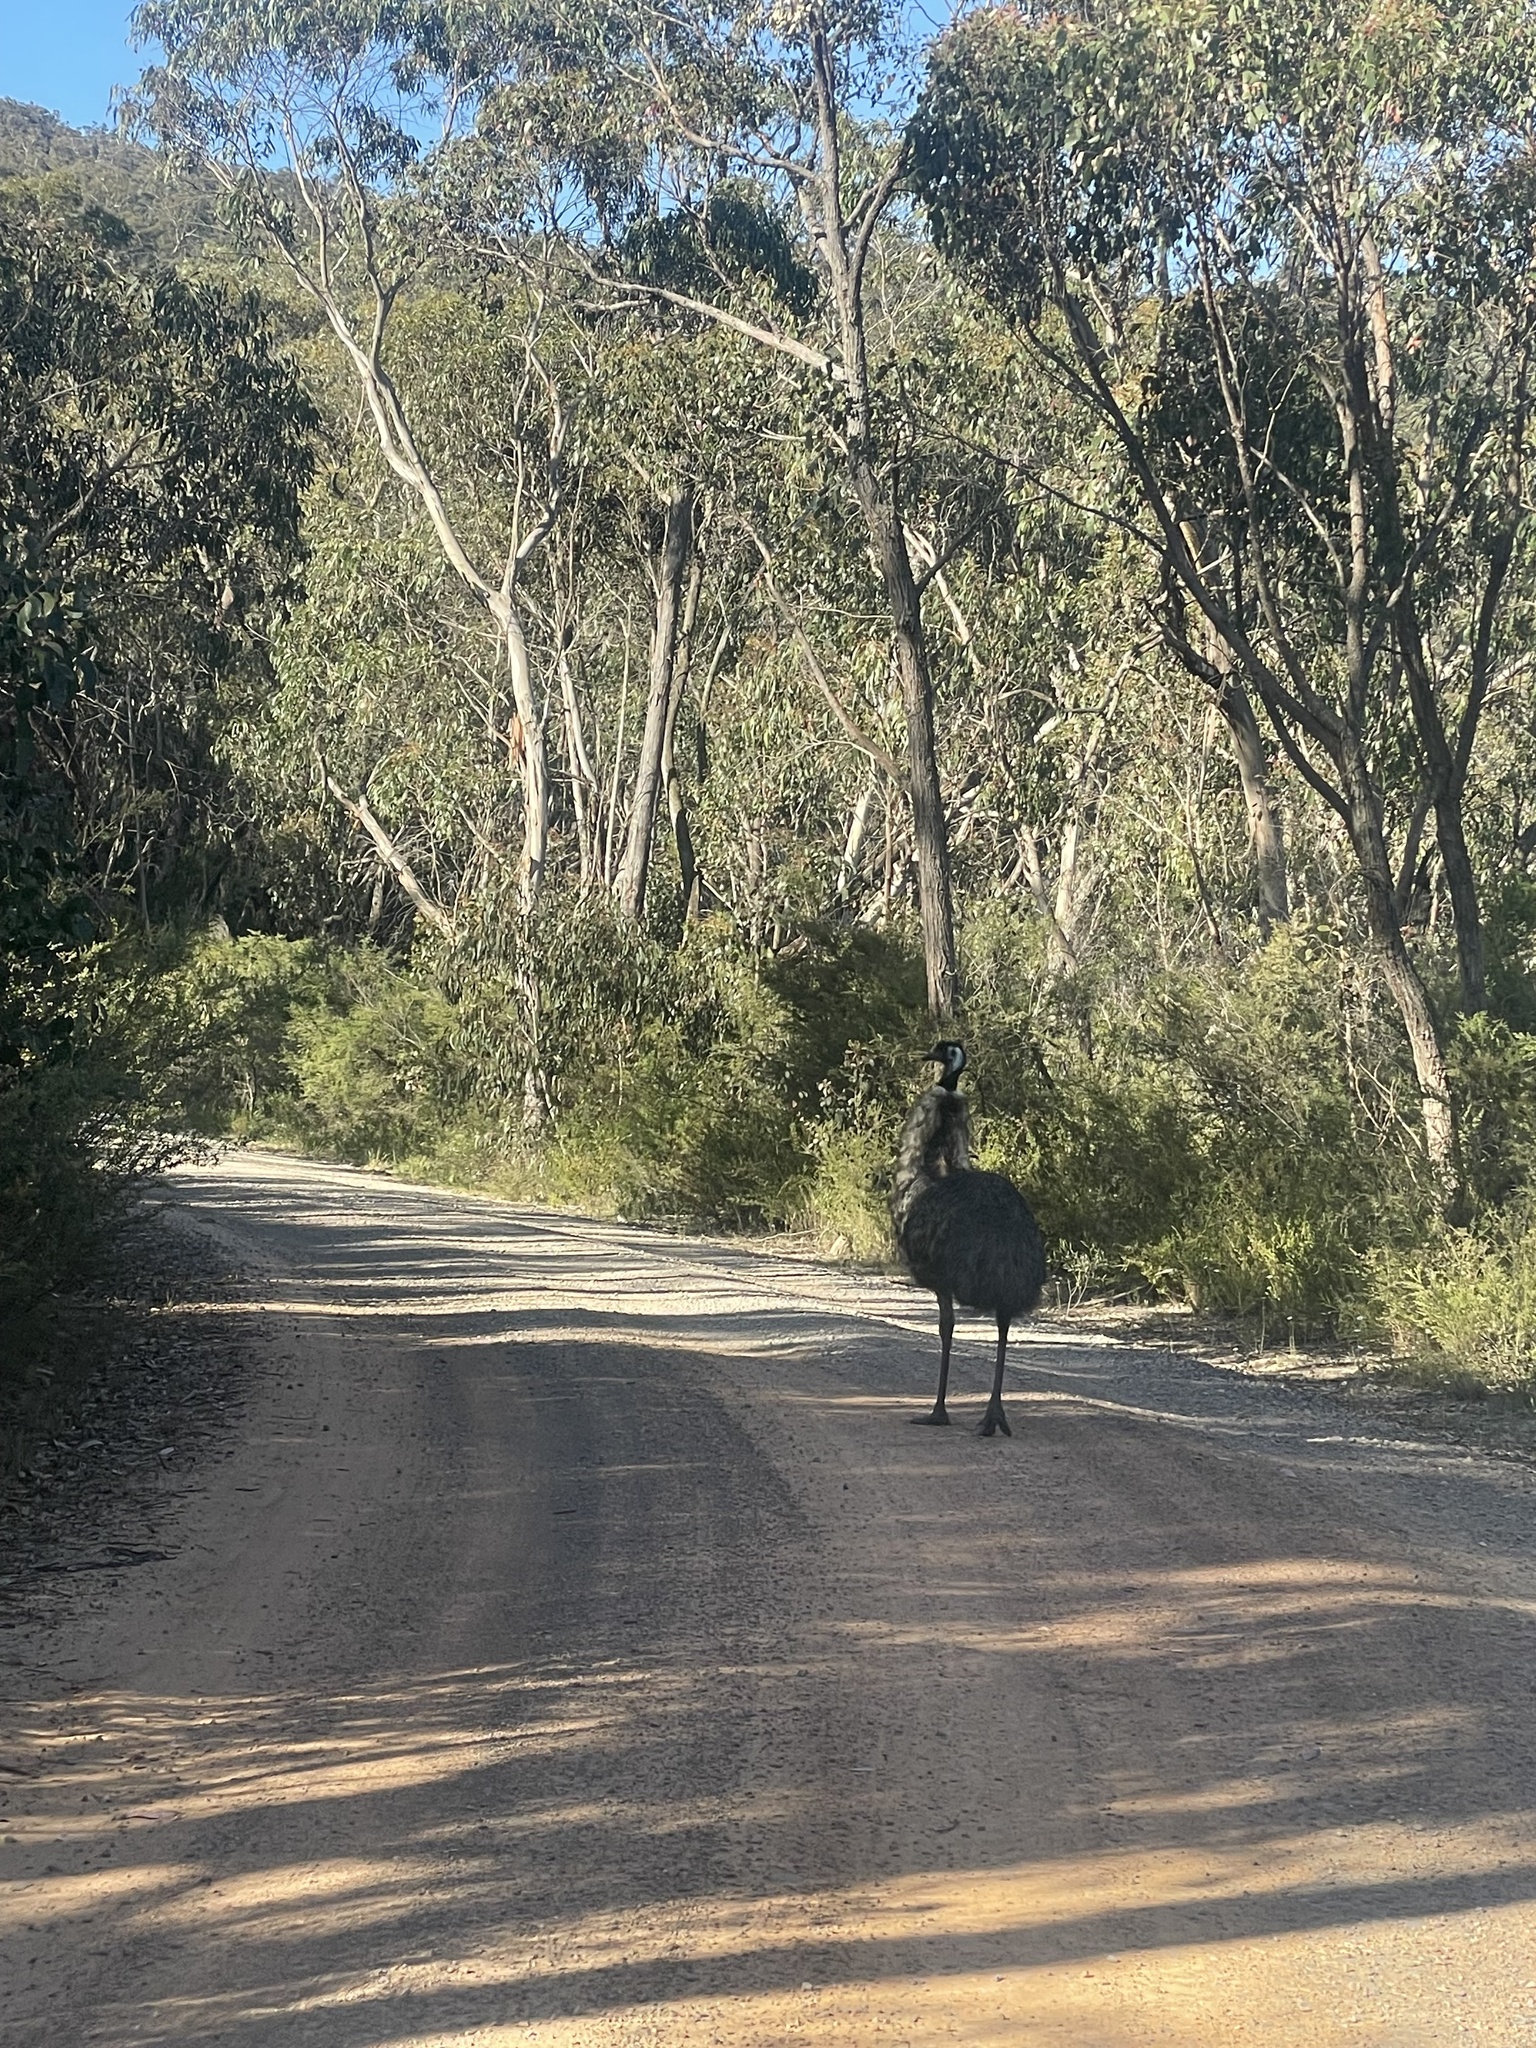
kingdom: Animalia
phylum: Chordata
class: Aves
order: Casuariiformes
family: Dromaiidae
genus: Dromaius
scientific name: Dromaius novaehollandiae
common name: Emu
